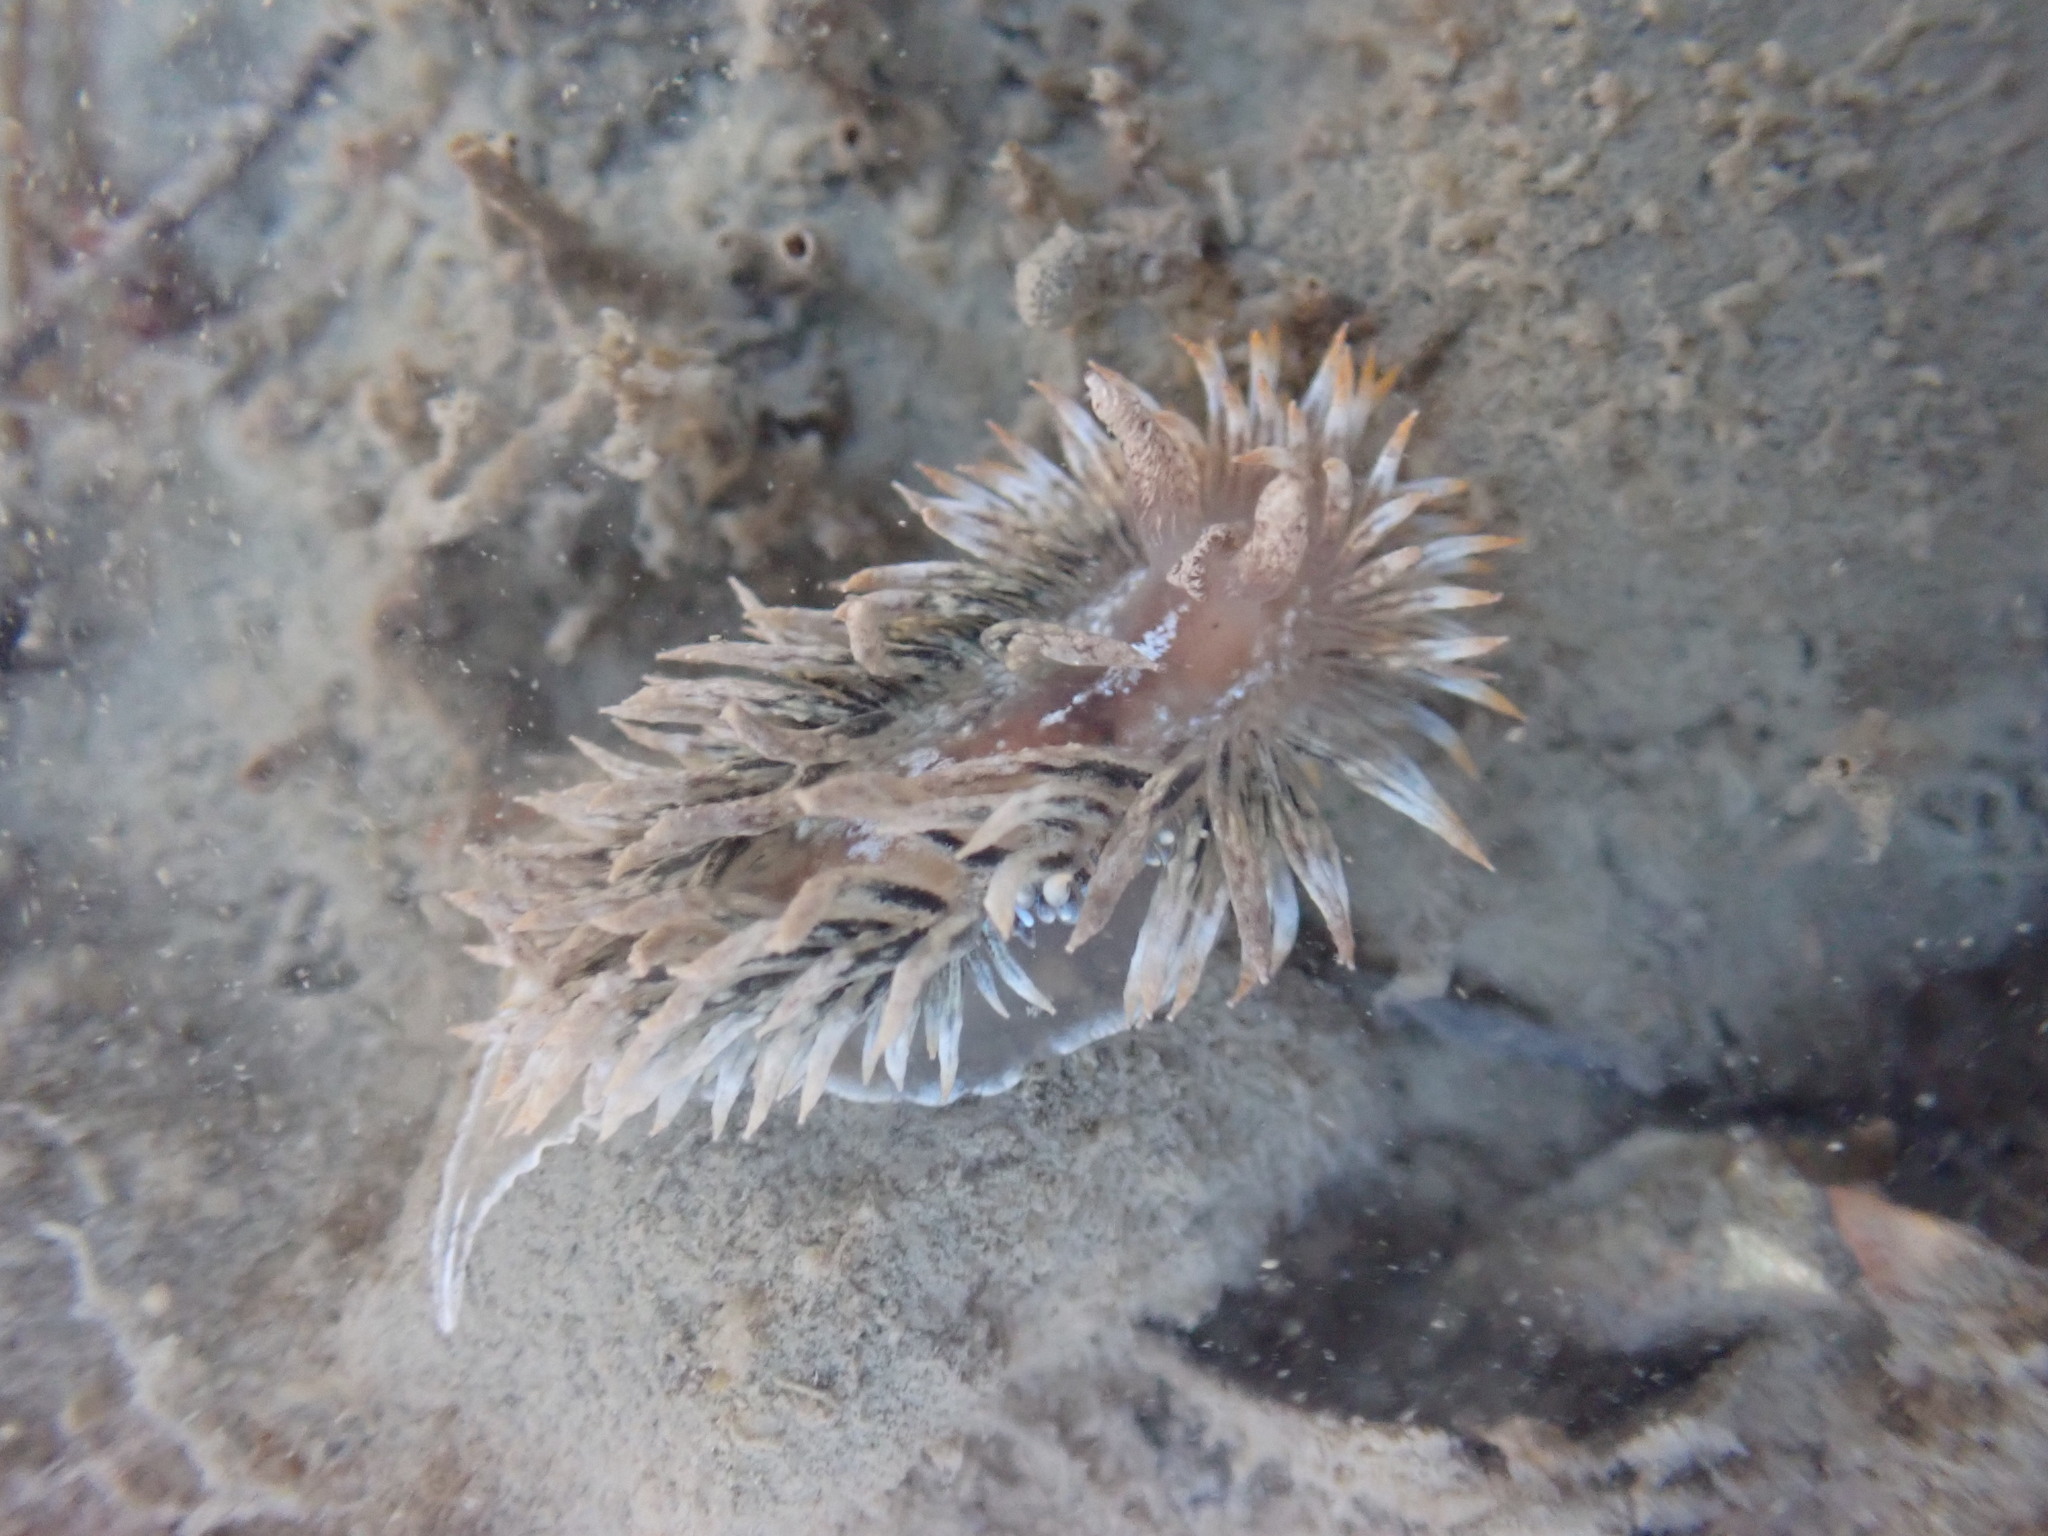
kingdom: Animalia
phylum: Mollusca
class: Gastropoda
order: Nudibranchia
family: Janolidae
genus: Antiopella
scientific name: Antiopella novozealandica
